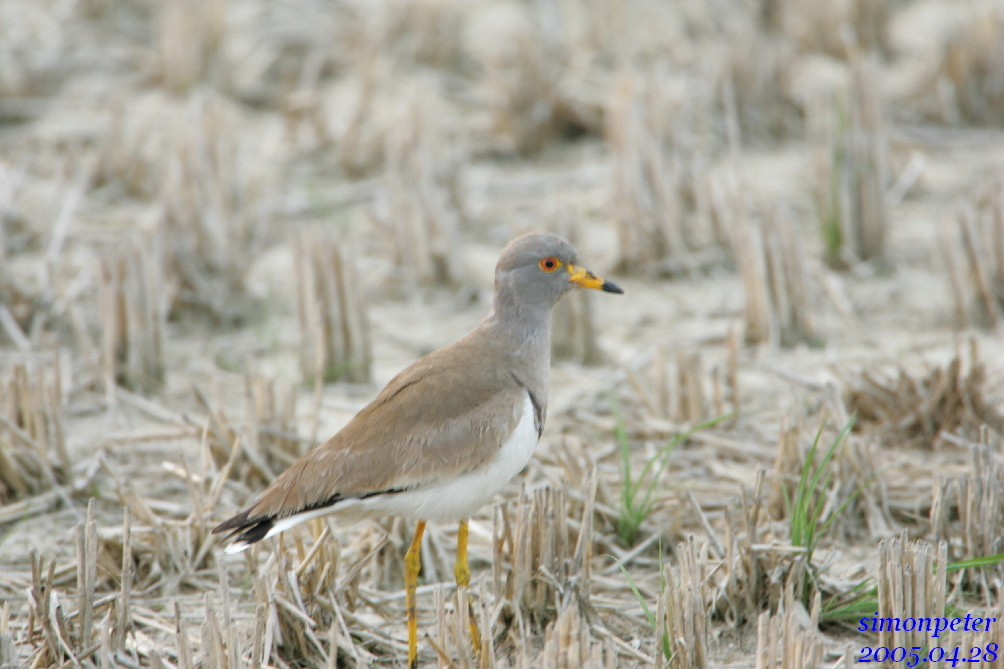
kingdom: Animalia
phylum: Chordata
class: Aves
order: Charadriiformes
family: Charadriidae
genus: Vanellus
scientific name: Vanellus cinereus
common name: Grey-headed lapwing
